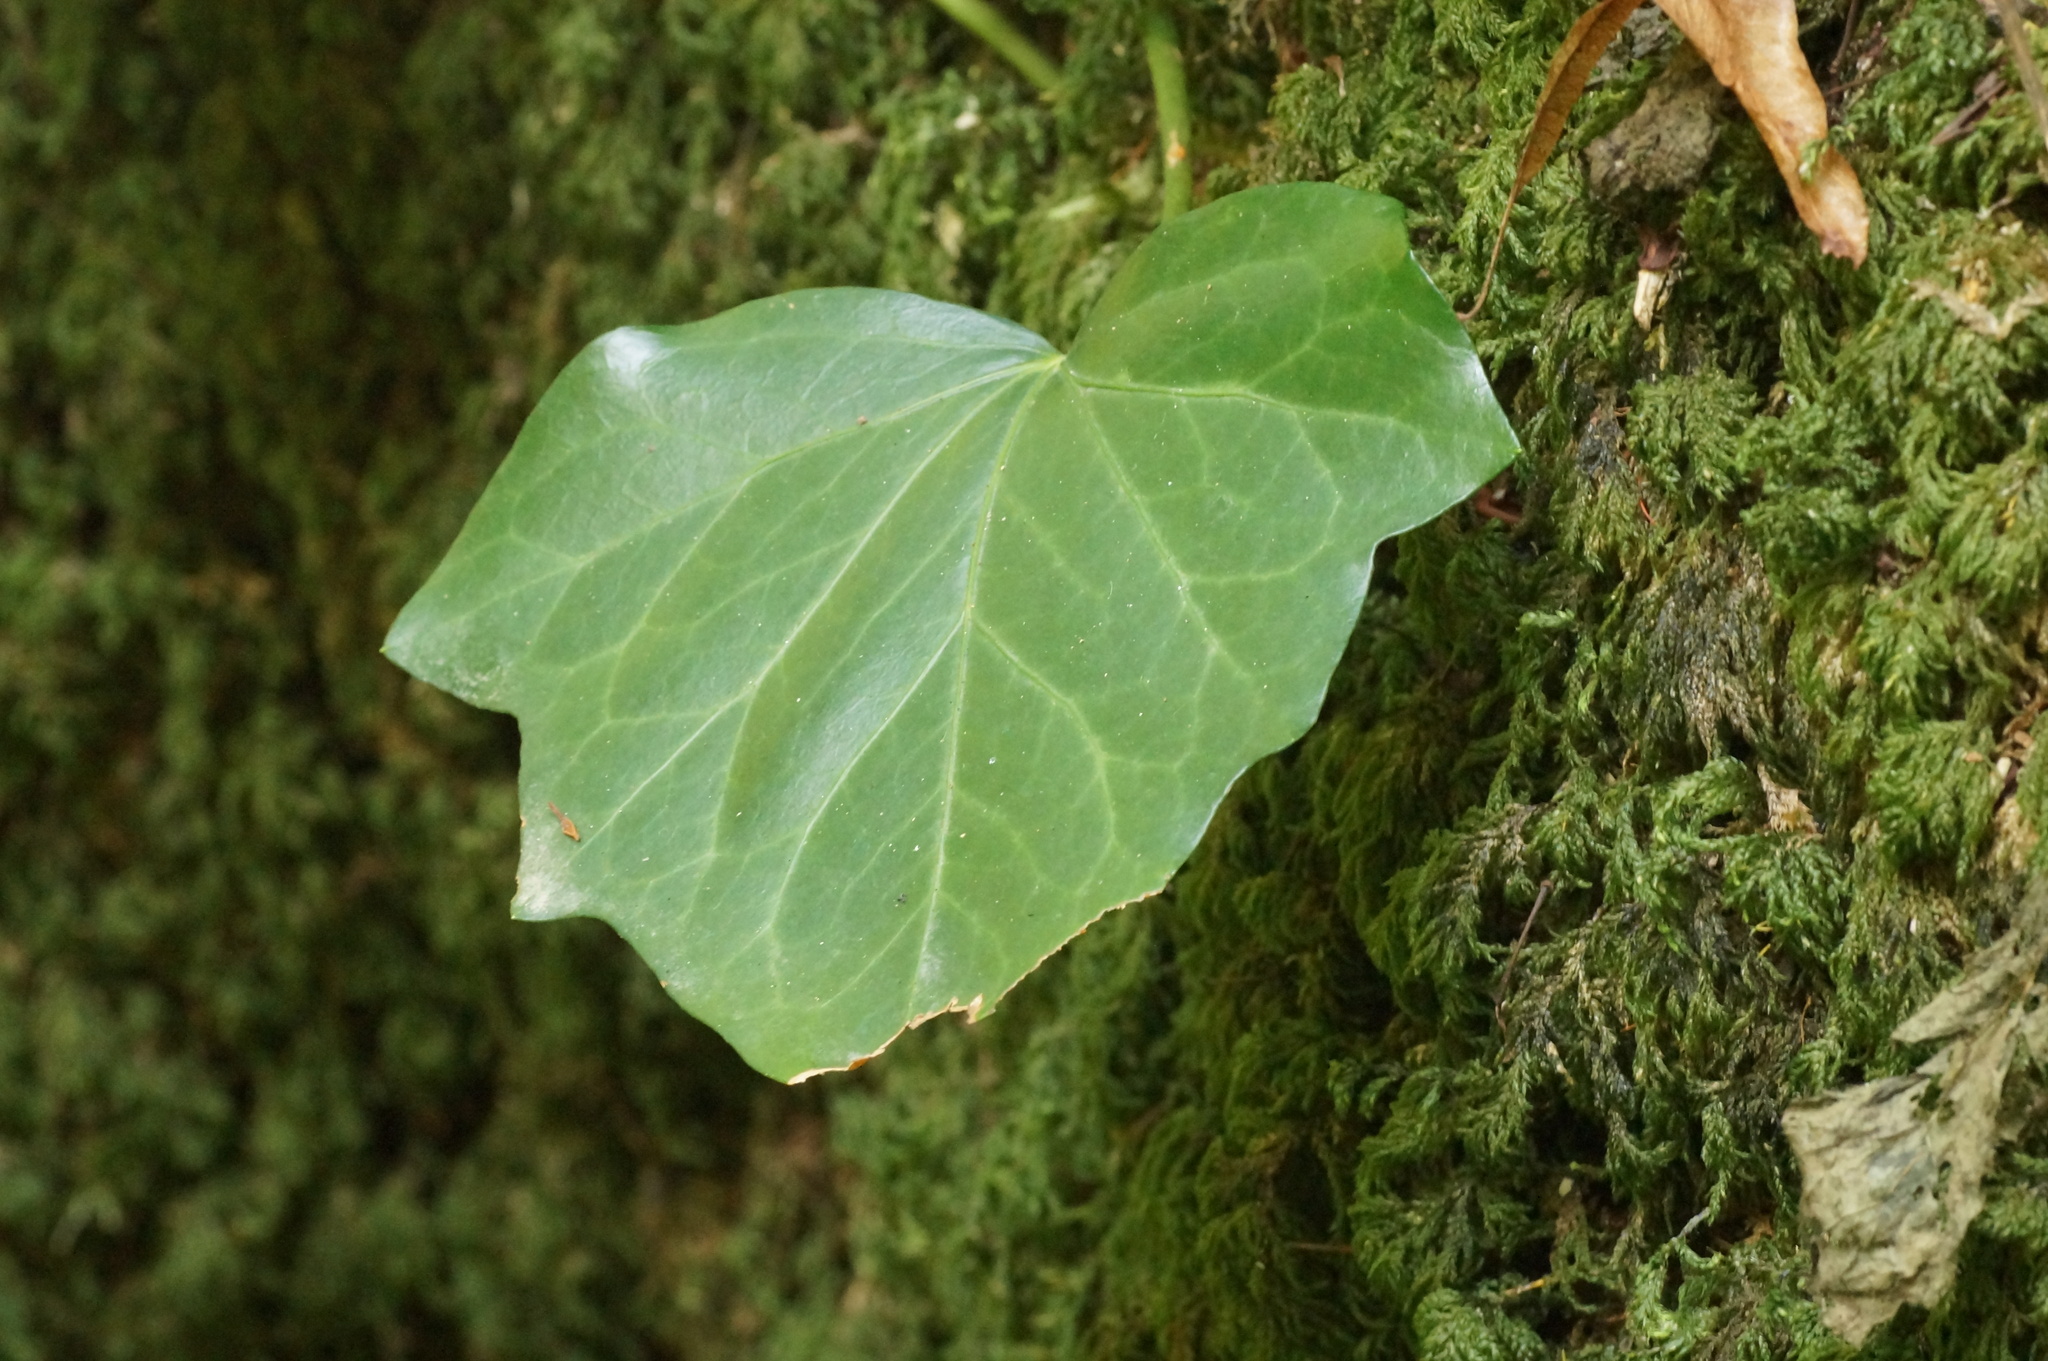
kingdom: Plantae
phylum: Tracheophyta
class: Magnoliopsida
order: Apiales
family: Araliaceae
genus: Hedera
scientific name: Hedera colchica
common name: Persian ivy
